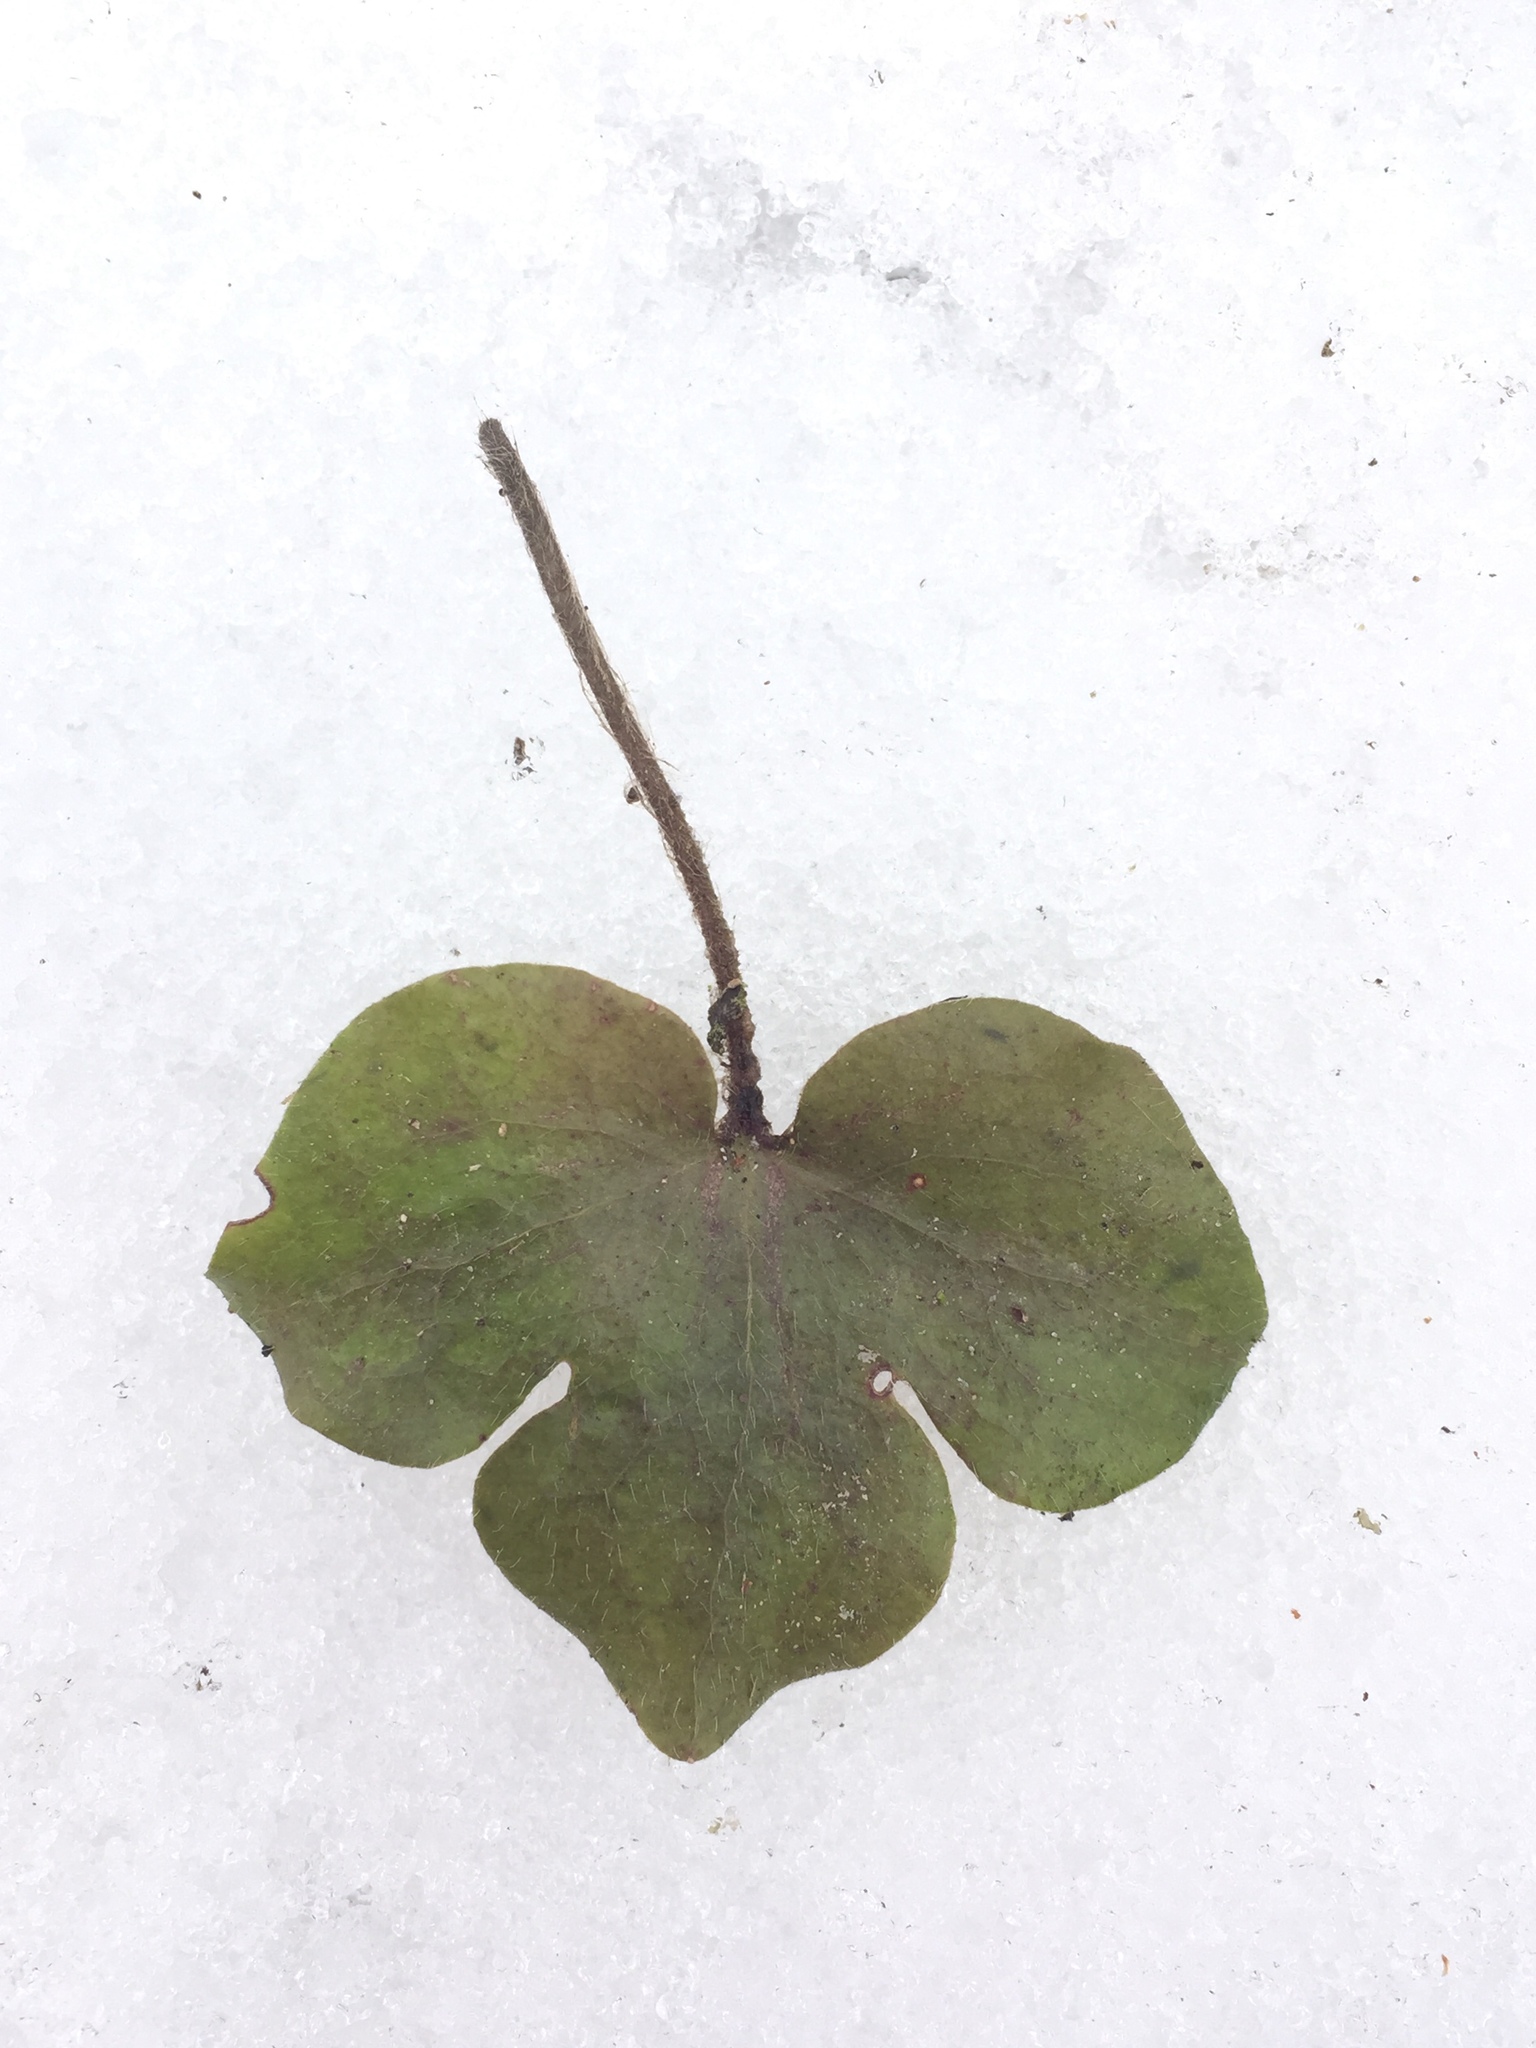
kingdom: Plantae
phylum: Tracheophyta
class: Magnoliopsida
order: Ranunculales
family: Ranunculaceae
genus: Hepatica
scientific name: Hepatica americana
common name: American hepatica
